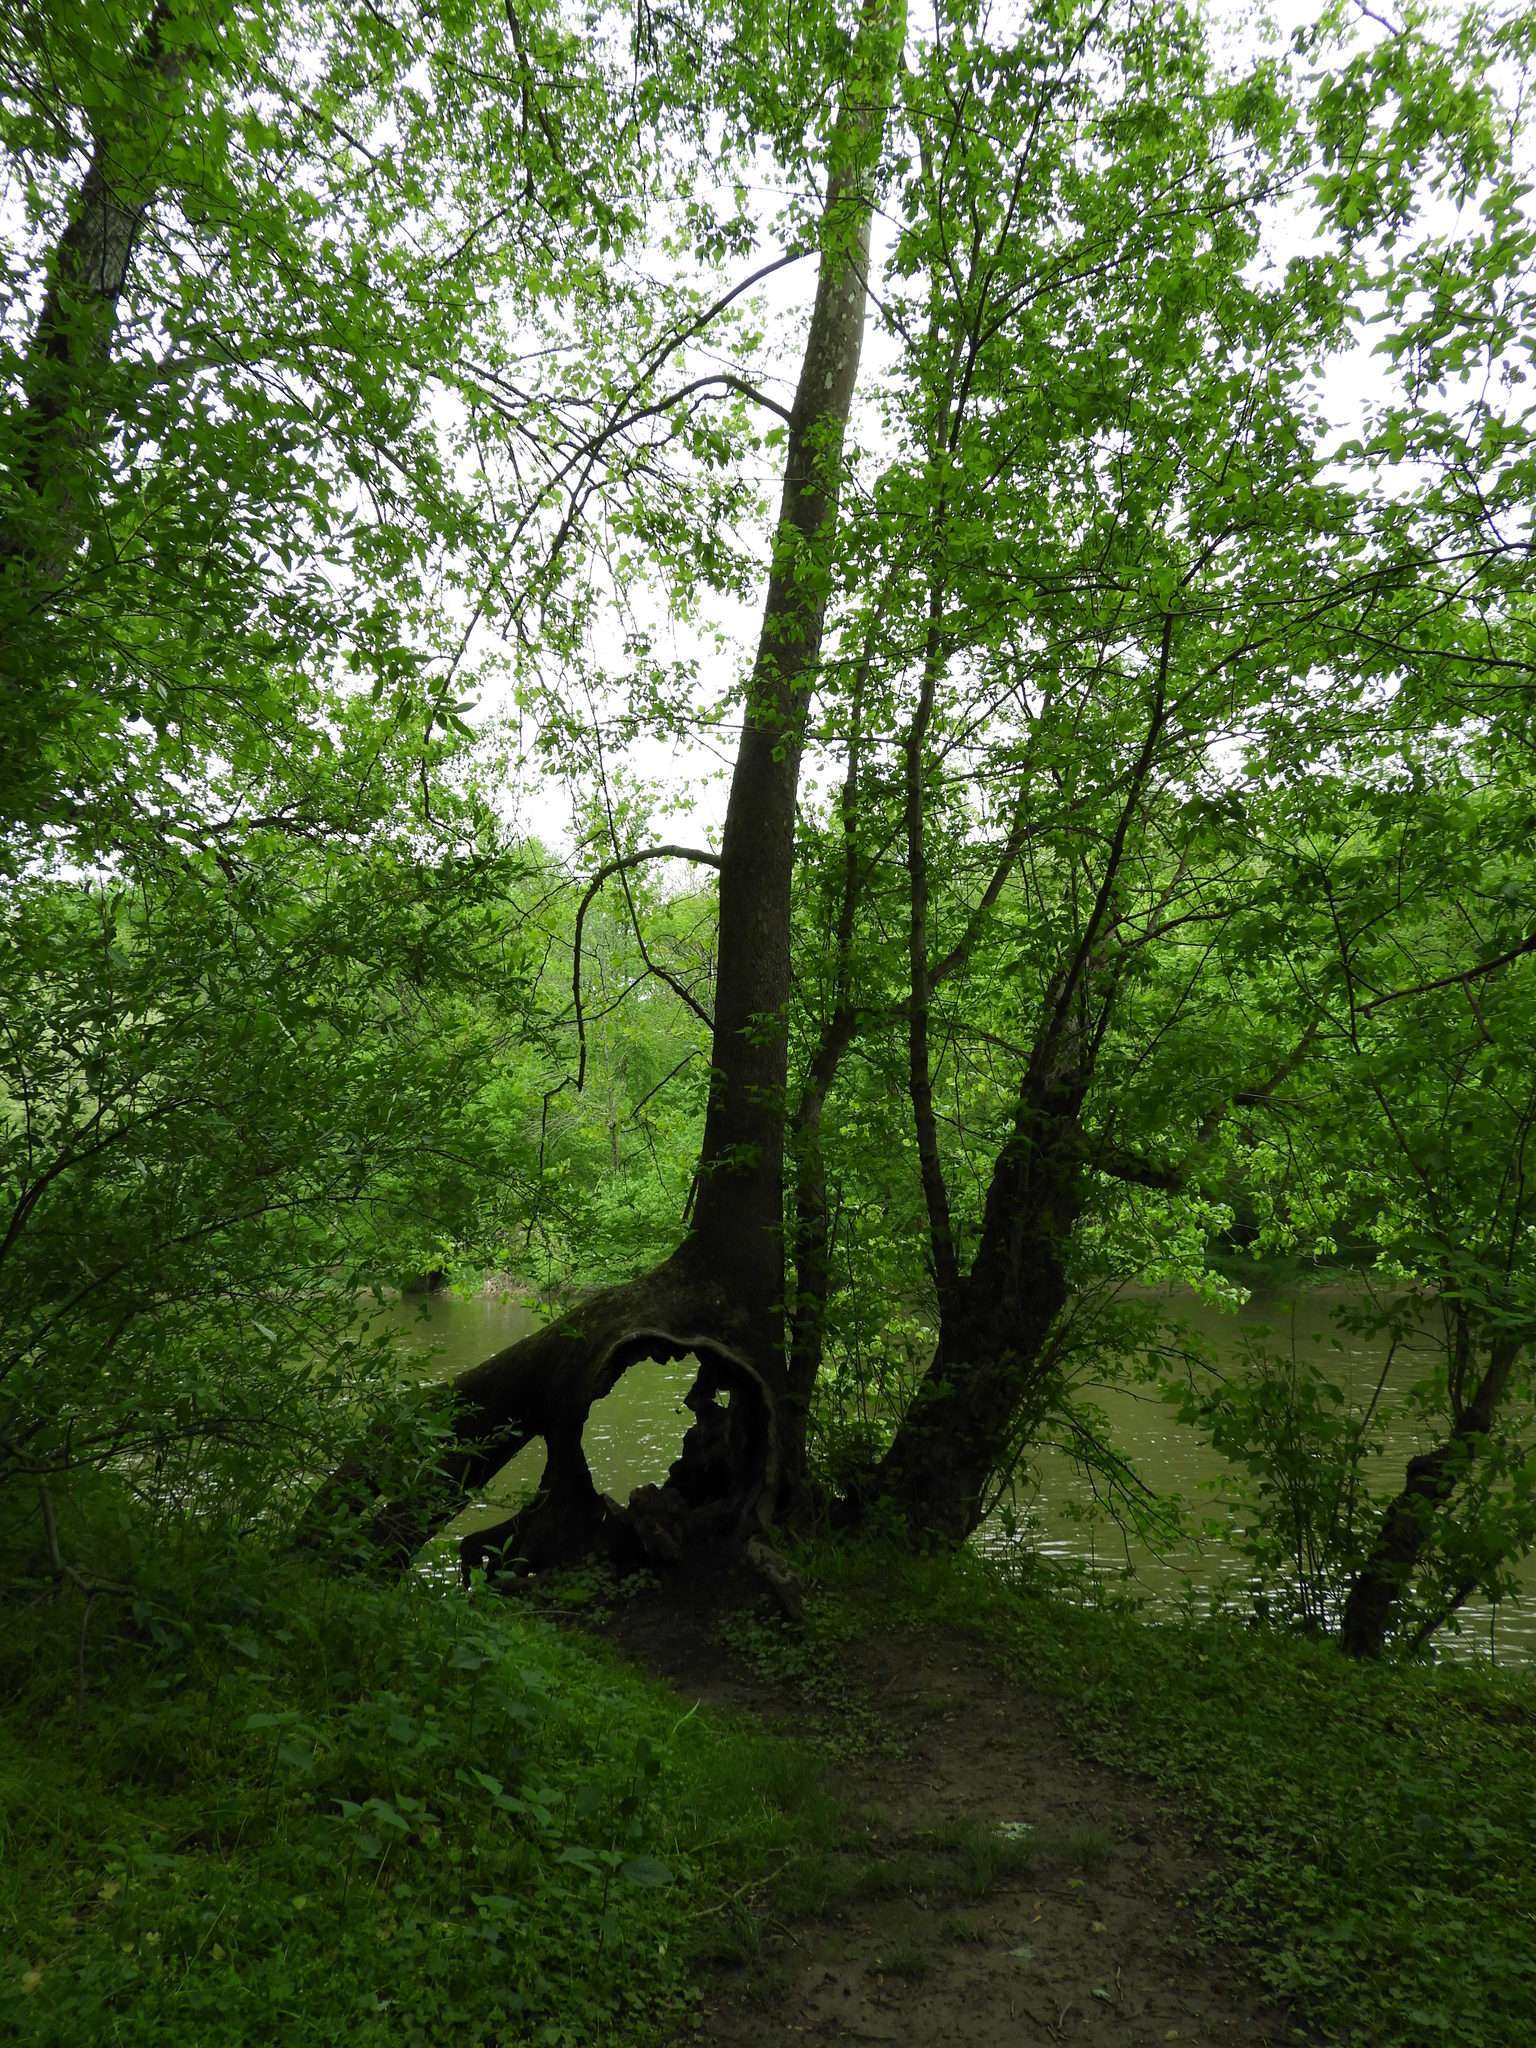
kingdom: Plantae
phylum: Tracheophyta
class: Magnoliopsida
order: Proteales
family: Platanaceae
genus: Platanus
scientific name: Platanus occidentalis
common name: American sycamore
